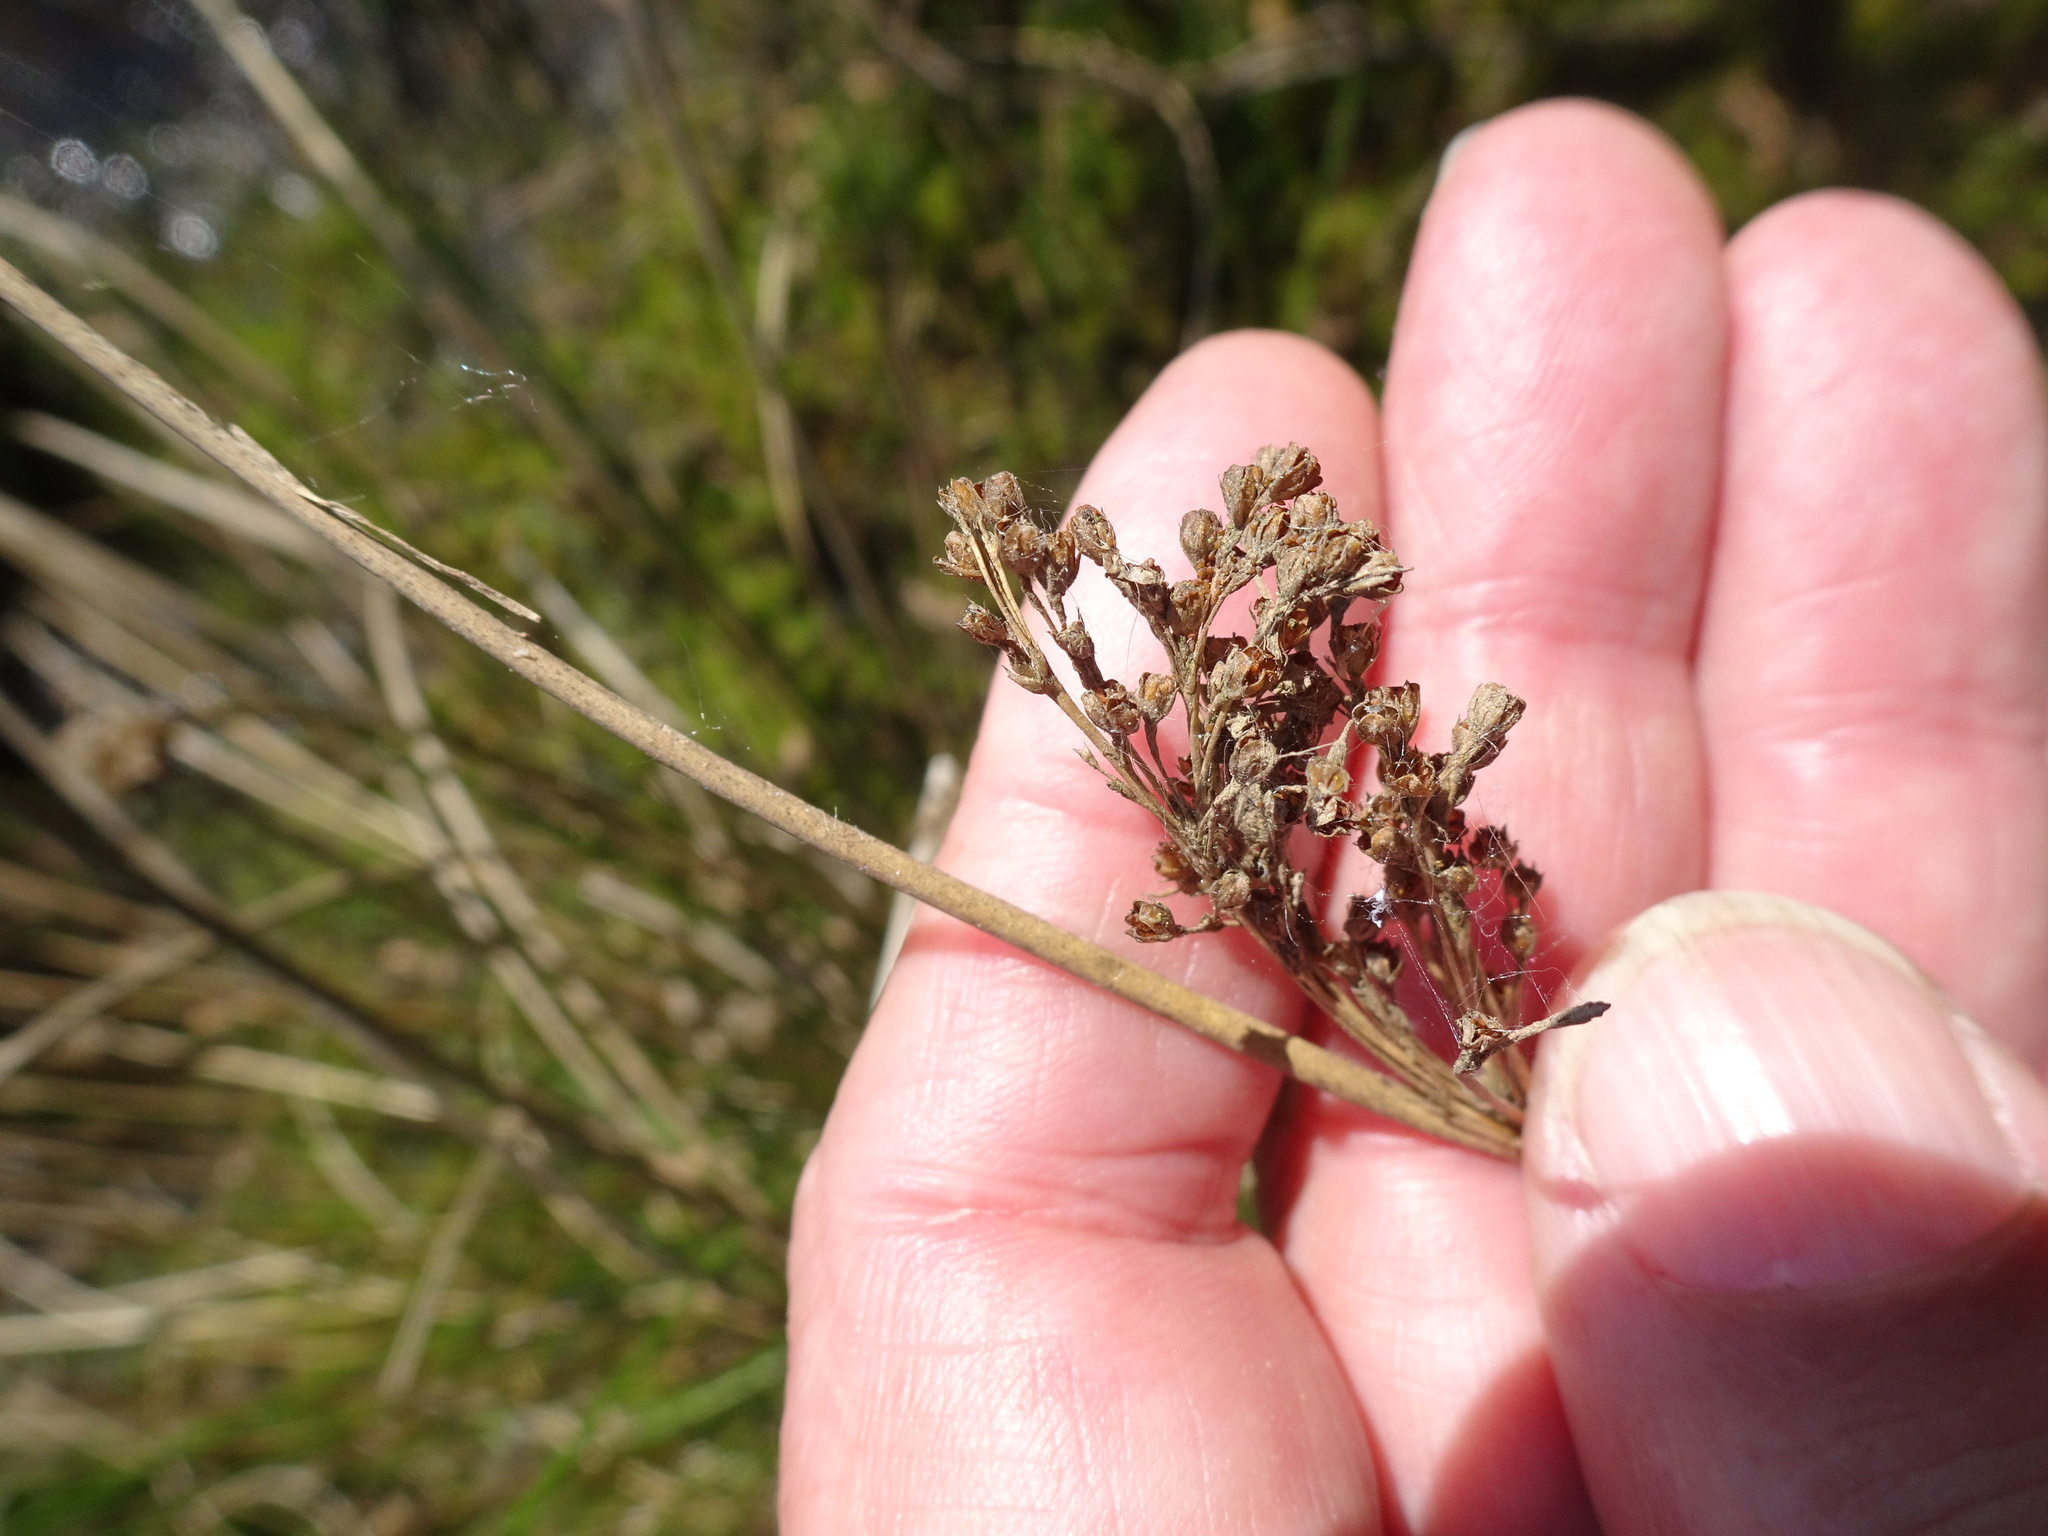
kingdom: Plantae
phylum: Tracheophyta
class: Liliopsida
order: Poales
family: Juncaceae
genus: Juncus
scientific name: Juncus effusus
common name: Soft rush
